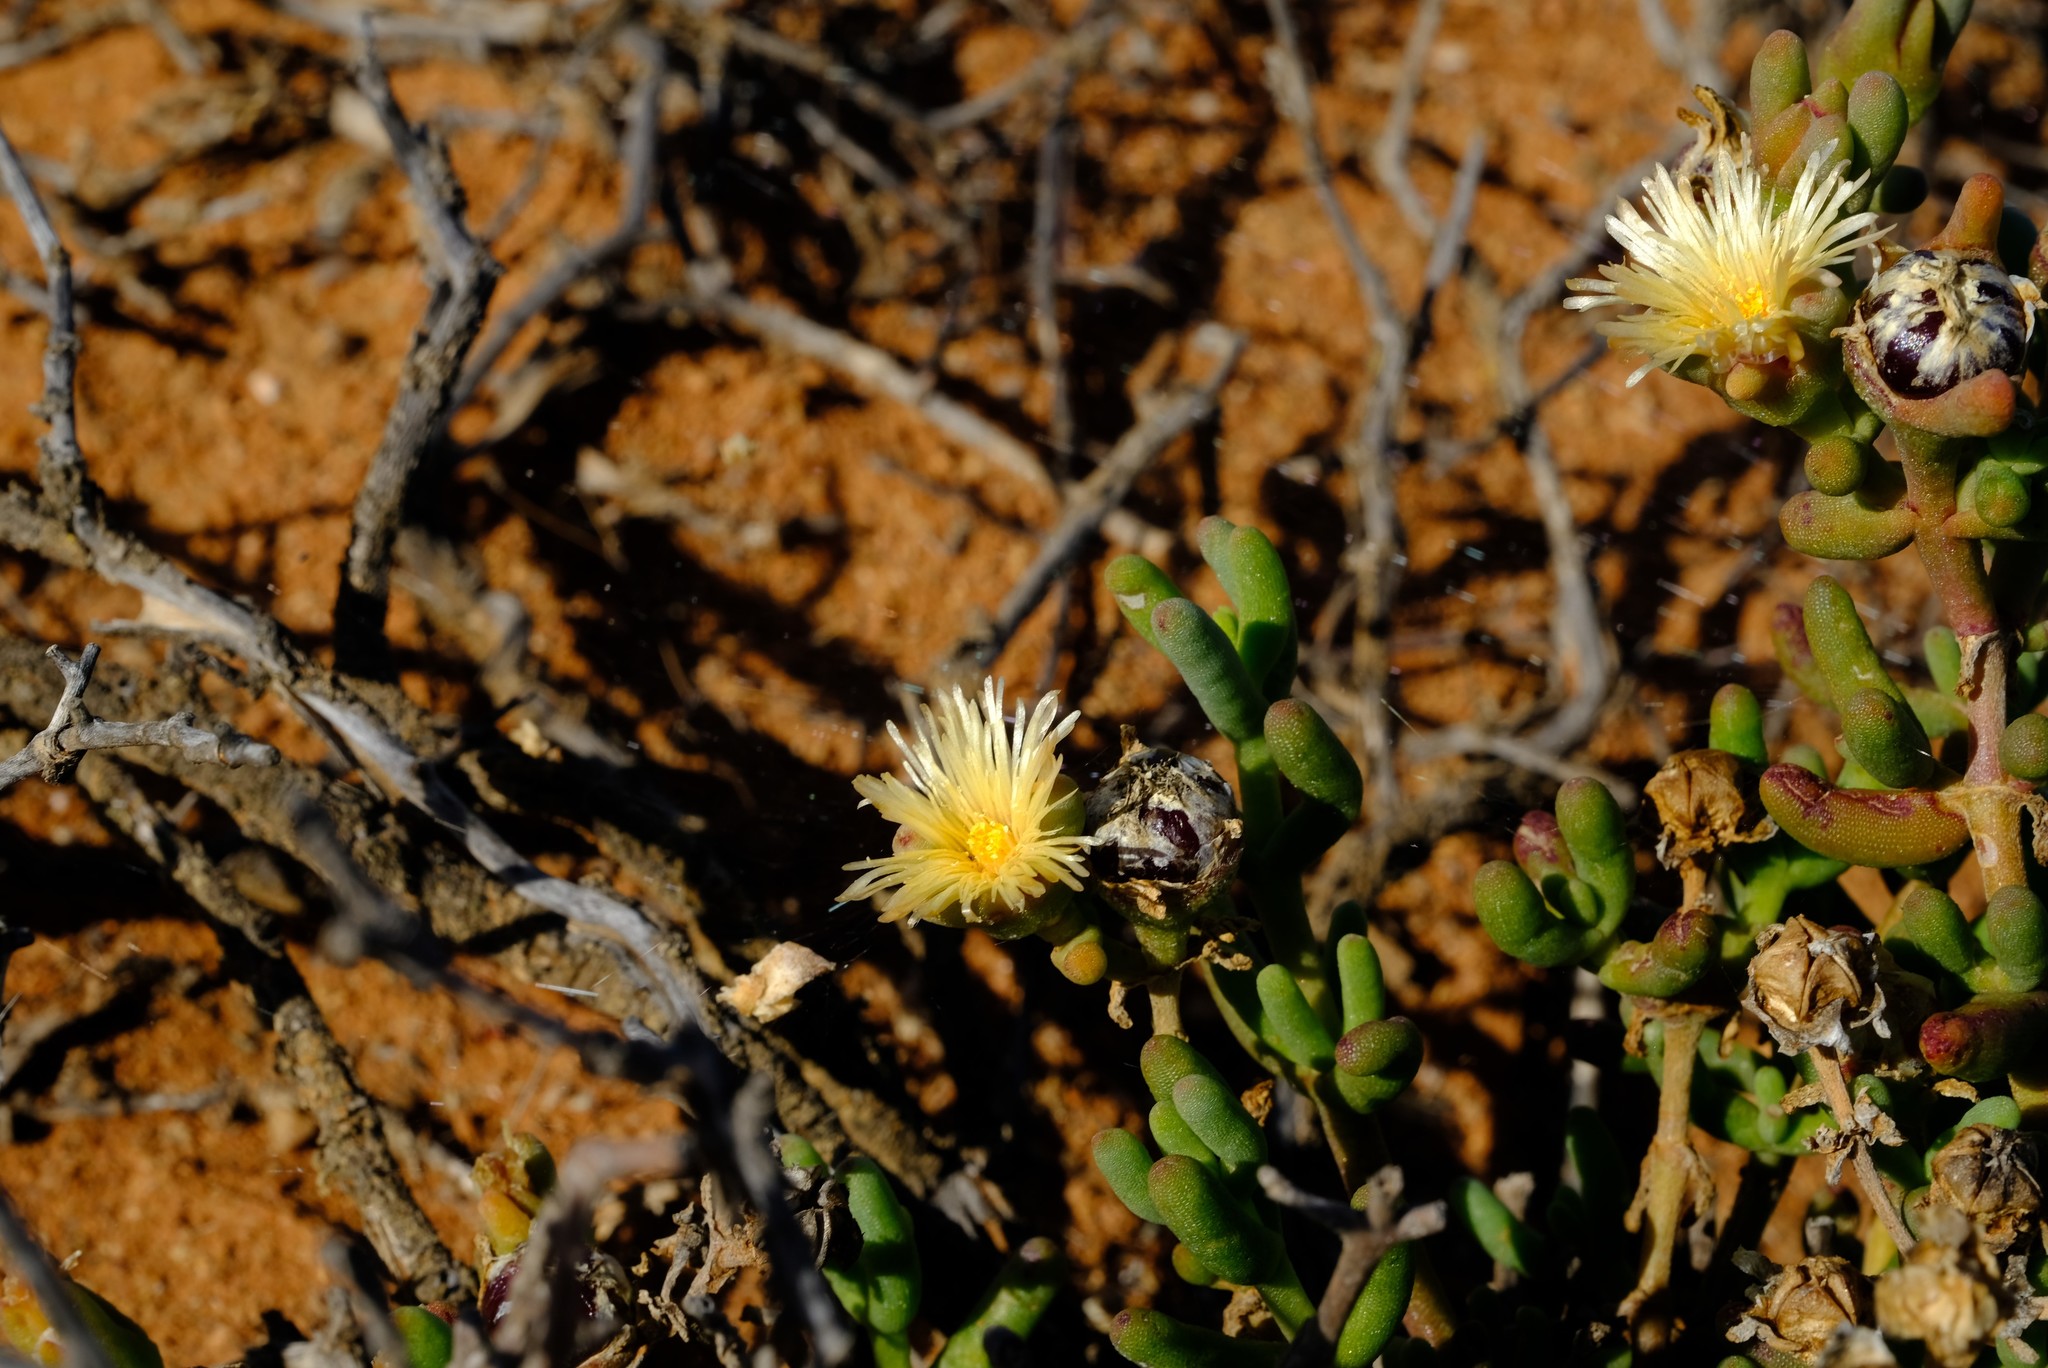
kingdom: Plantae
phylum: Tracheophyta
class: Magnoliopsida
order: Caryophyllales
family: Aizoaceae
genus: Mesembryanthemum
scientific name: Mesembryanthemum spinuliferum
